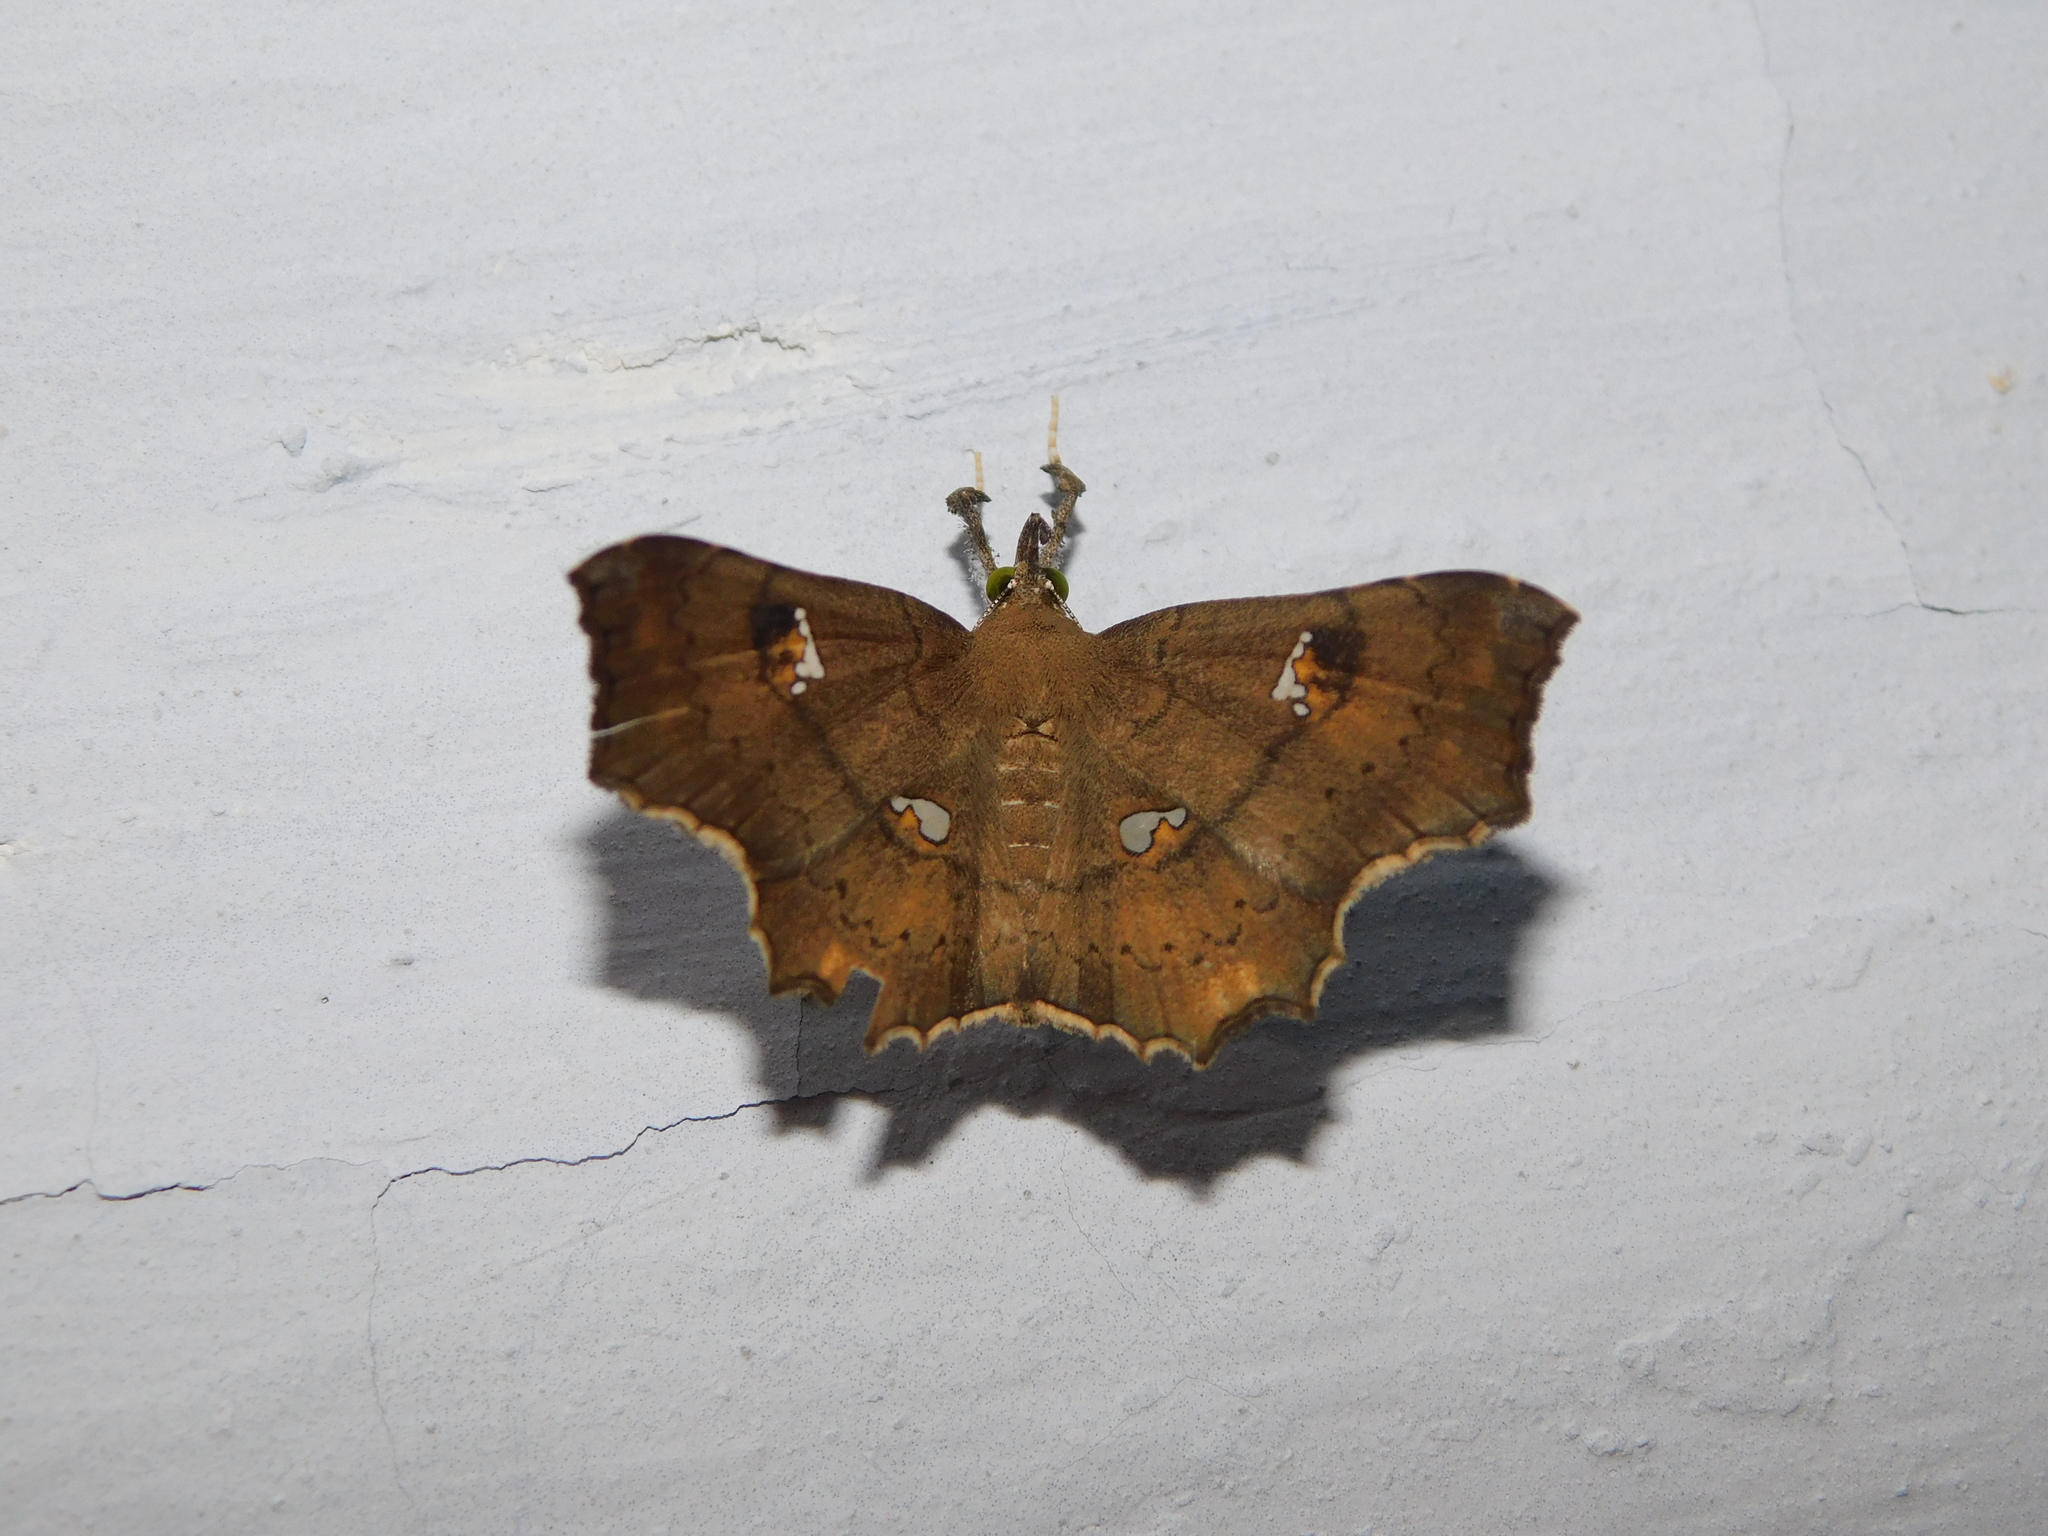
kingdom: Animalia
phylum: Arthropoda
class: Insecta
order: Lepidoptera
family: Erebidae
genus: Egnasia
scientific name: Egnasia ephyrodalis
